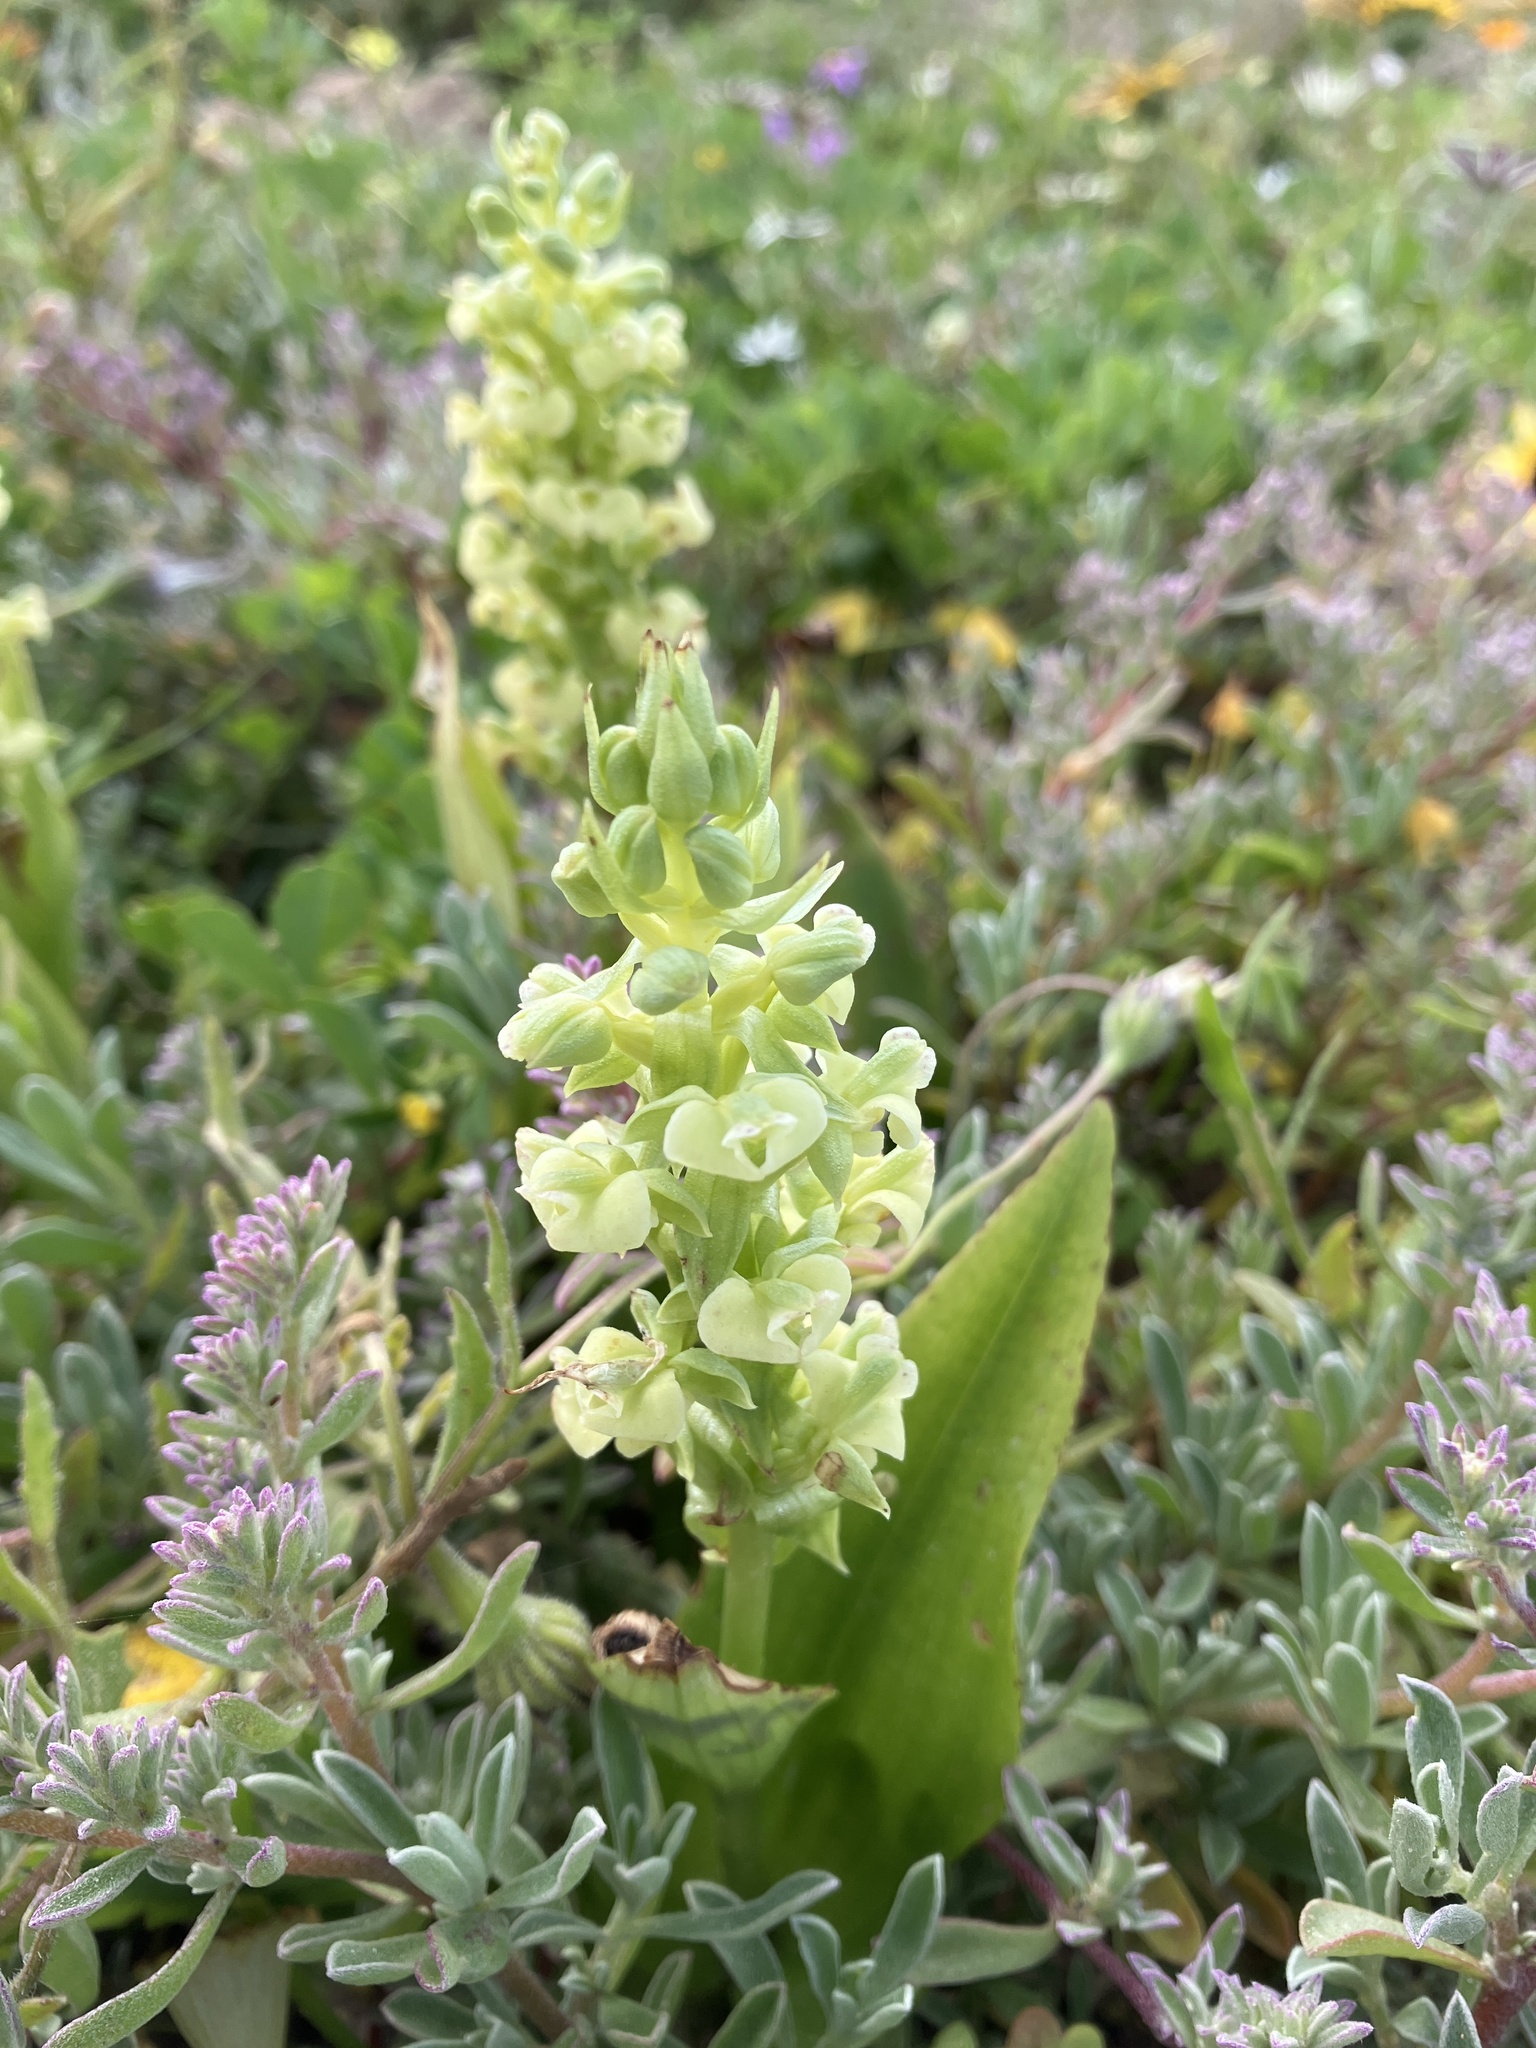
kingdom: Plantae
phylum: Tracheophyta
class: Liliopsida
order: Asparagales
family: Orchidaceae
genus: Pterygodium
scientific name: Pterygodium volucris
